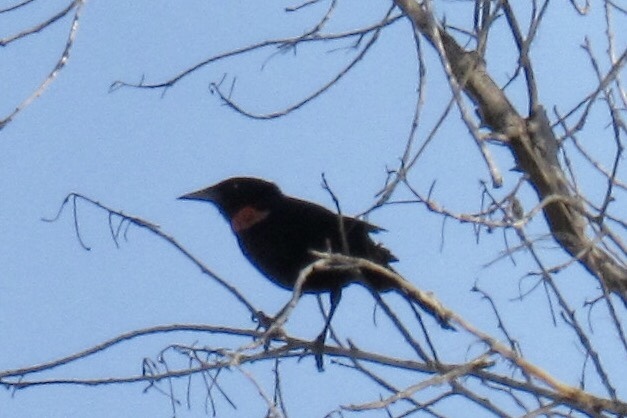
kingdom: Animalia
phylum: Chordata
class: Aves
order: Passeriformes
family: Icteridae
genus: Agelaius
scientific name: Agelaius phoeniceus
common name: Red-winged blackbird
